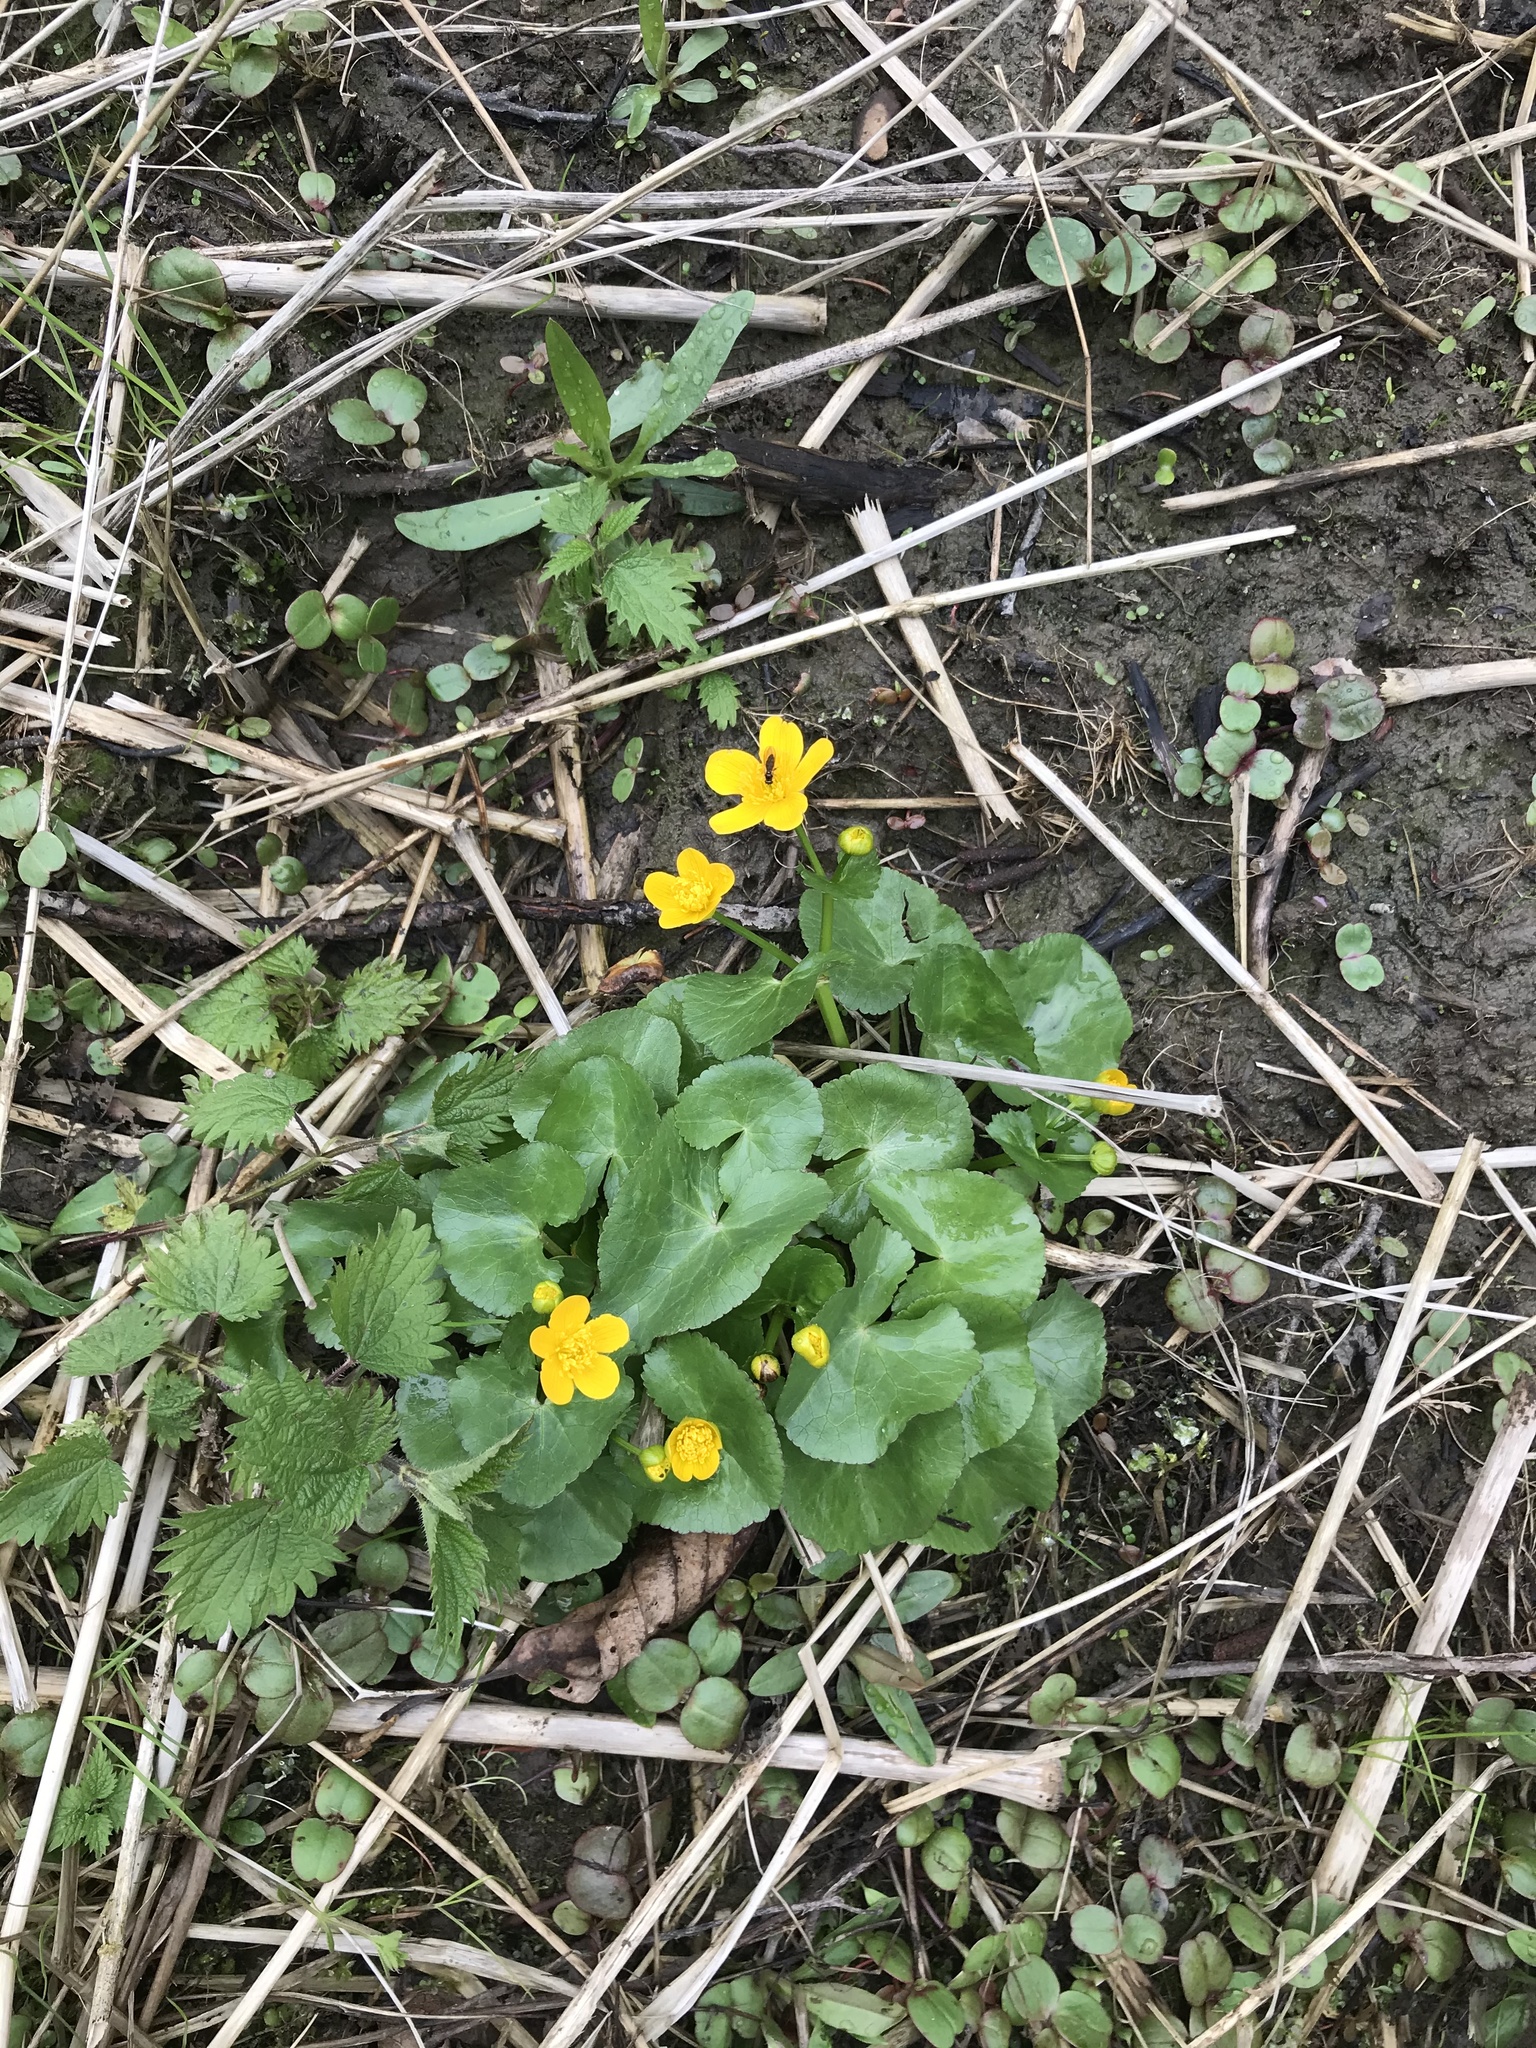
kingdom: Plantae
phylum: Tracheophyta
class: Magnoliopsida
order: Ranunculales
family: Ranunculaceae
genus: Caltha
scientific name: Caltha palustris
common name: Marsh marigold
